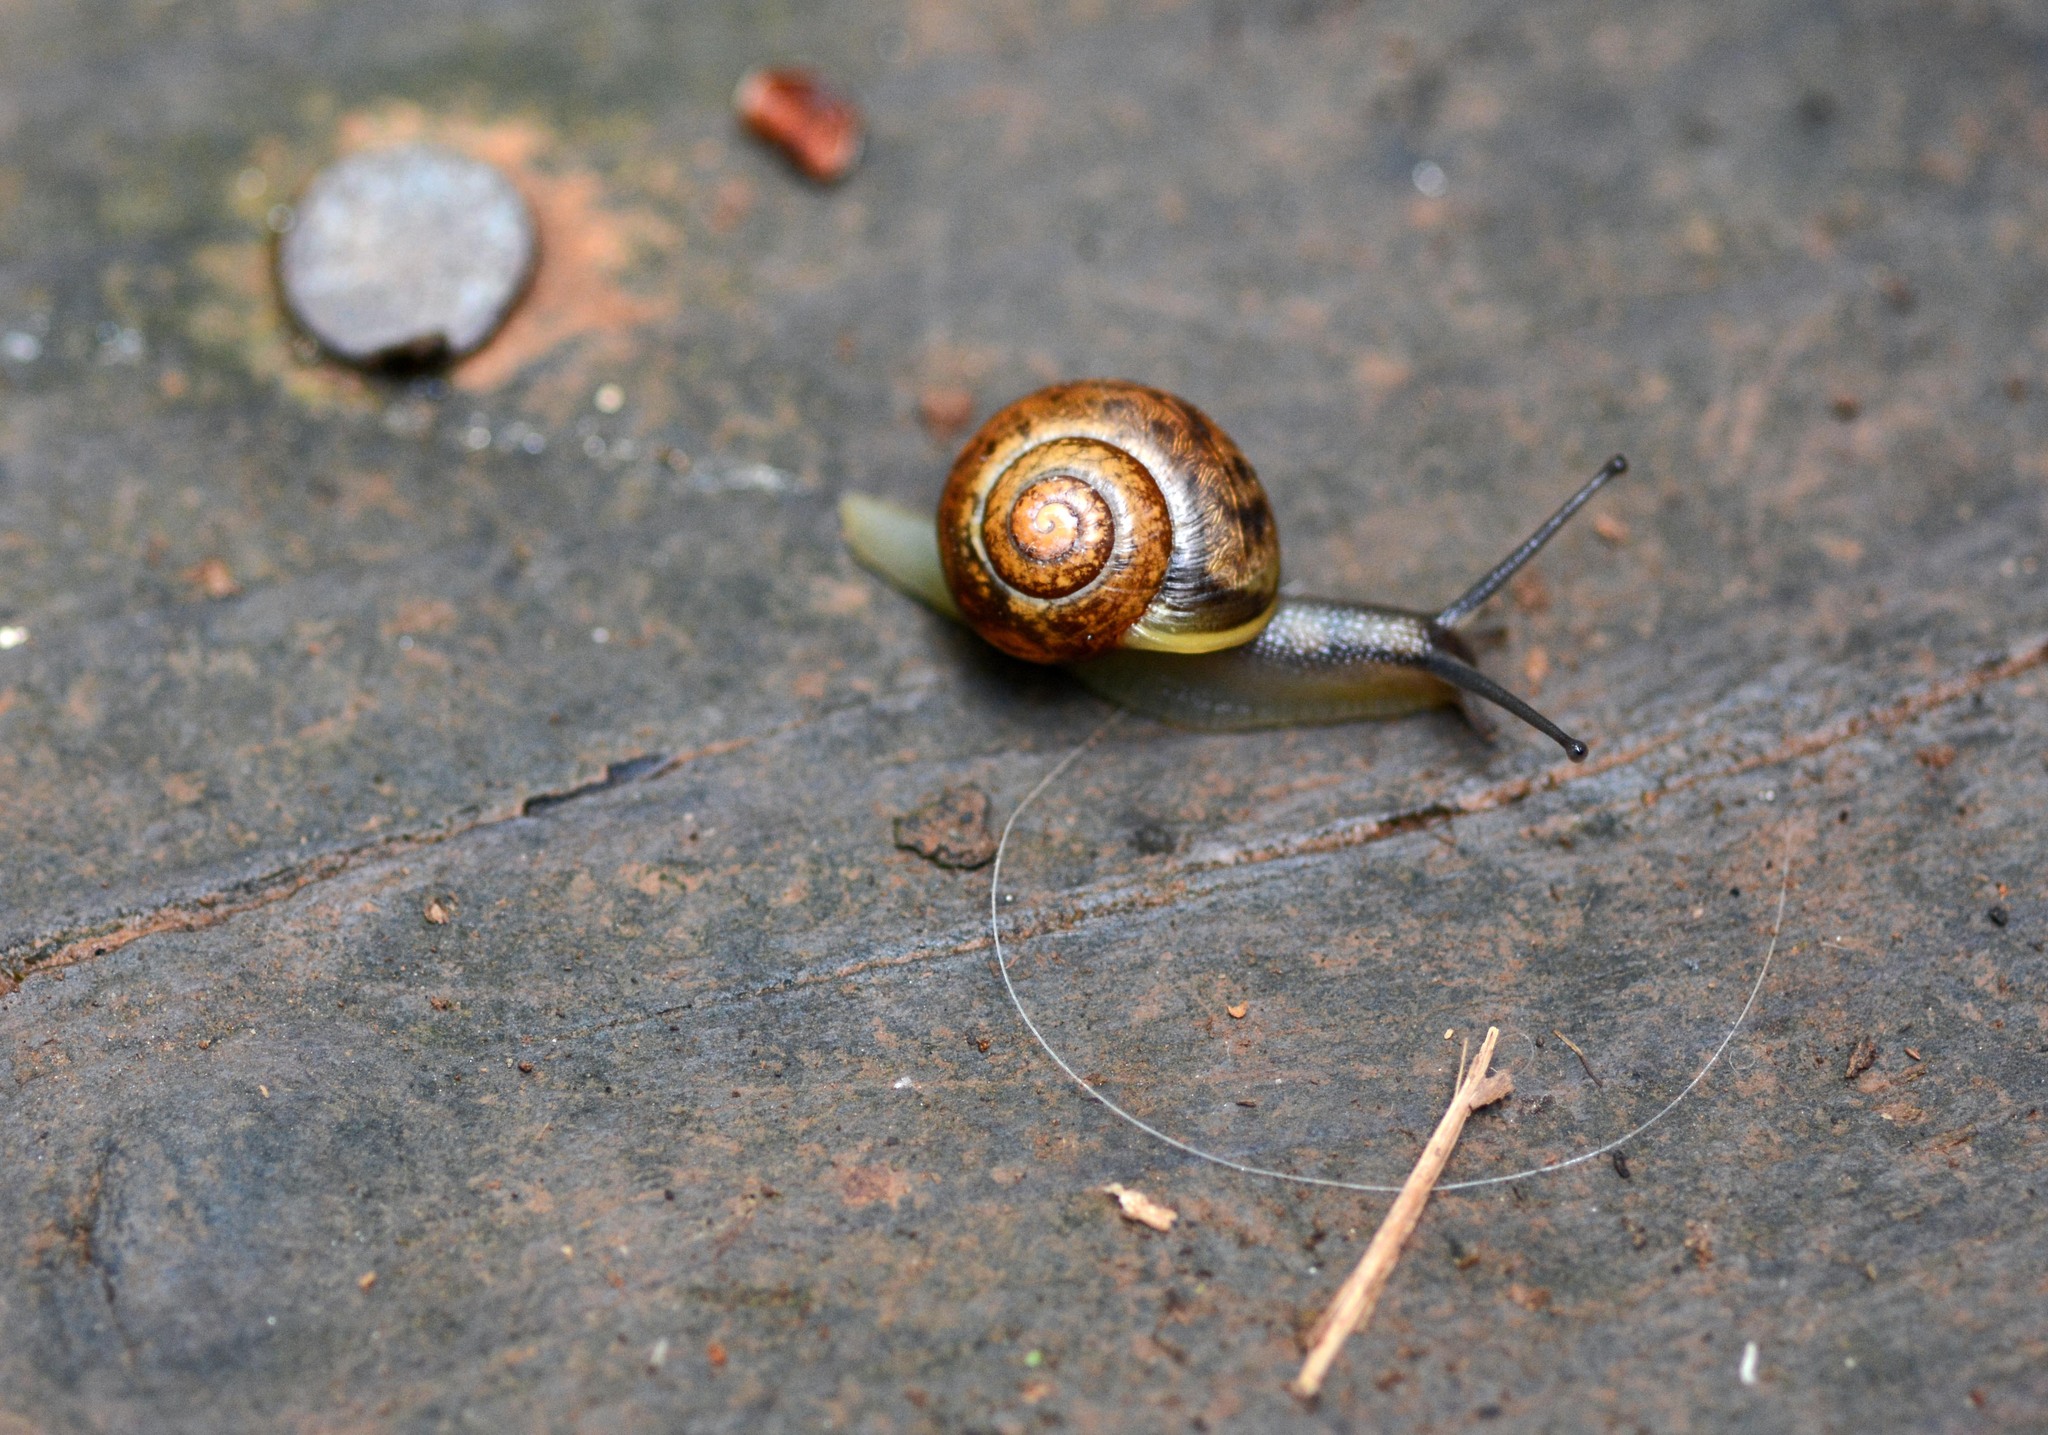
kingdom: Animalia
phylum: Mollusca
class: Gastropoda
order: Stylommatophora
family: Helicidae
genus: Arianta
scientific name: Arianta arbustorum
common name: Copse snail
